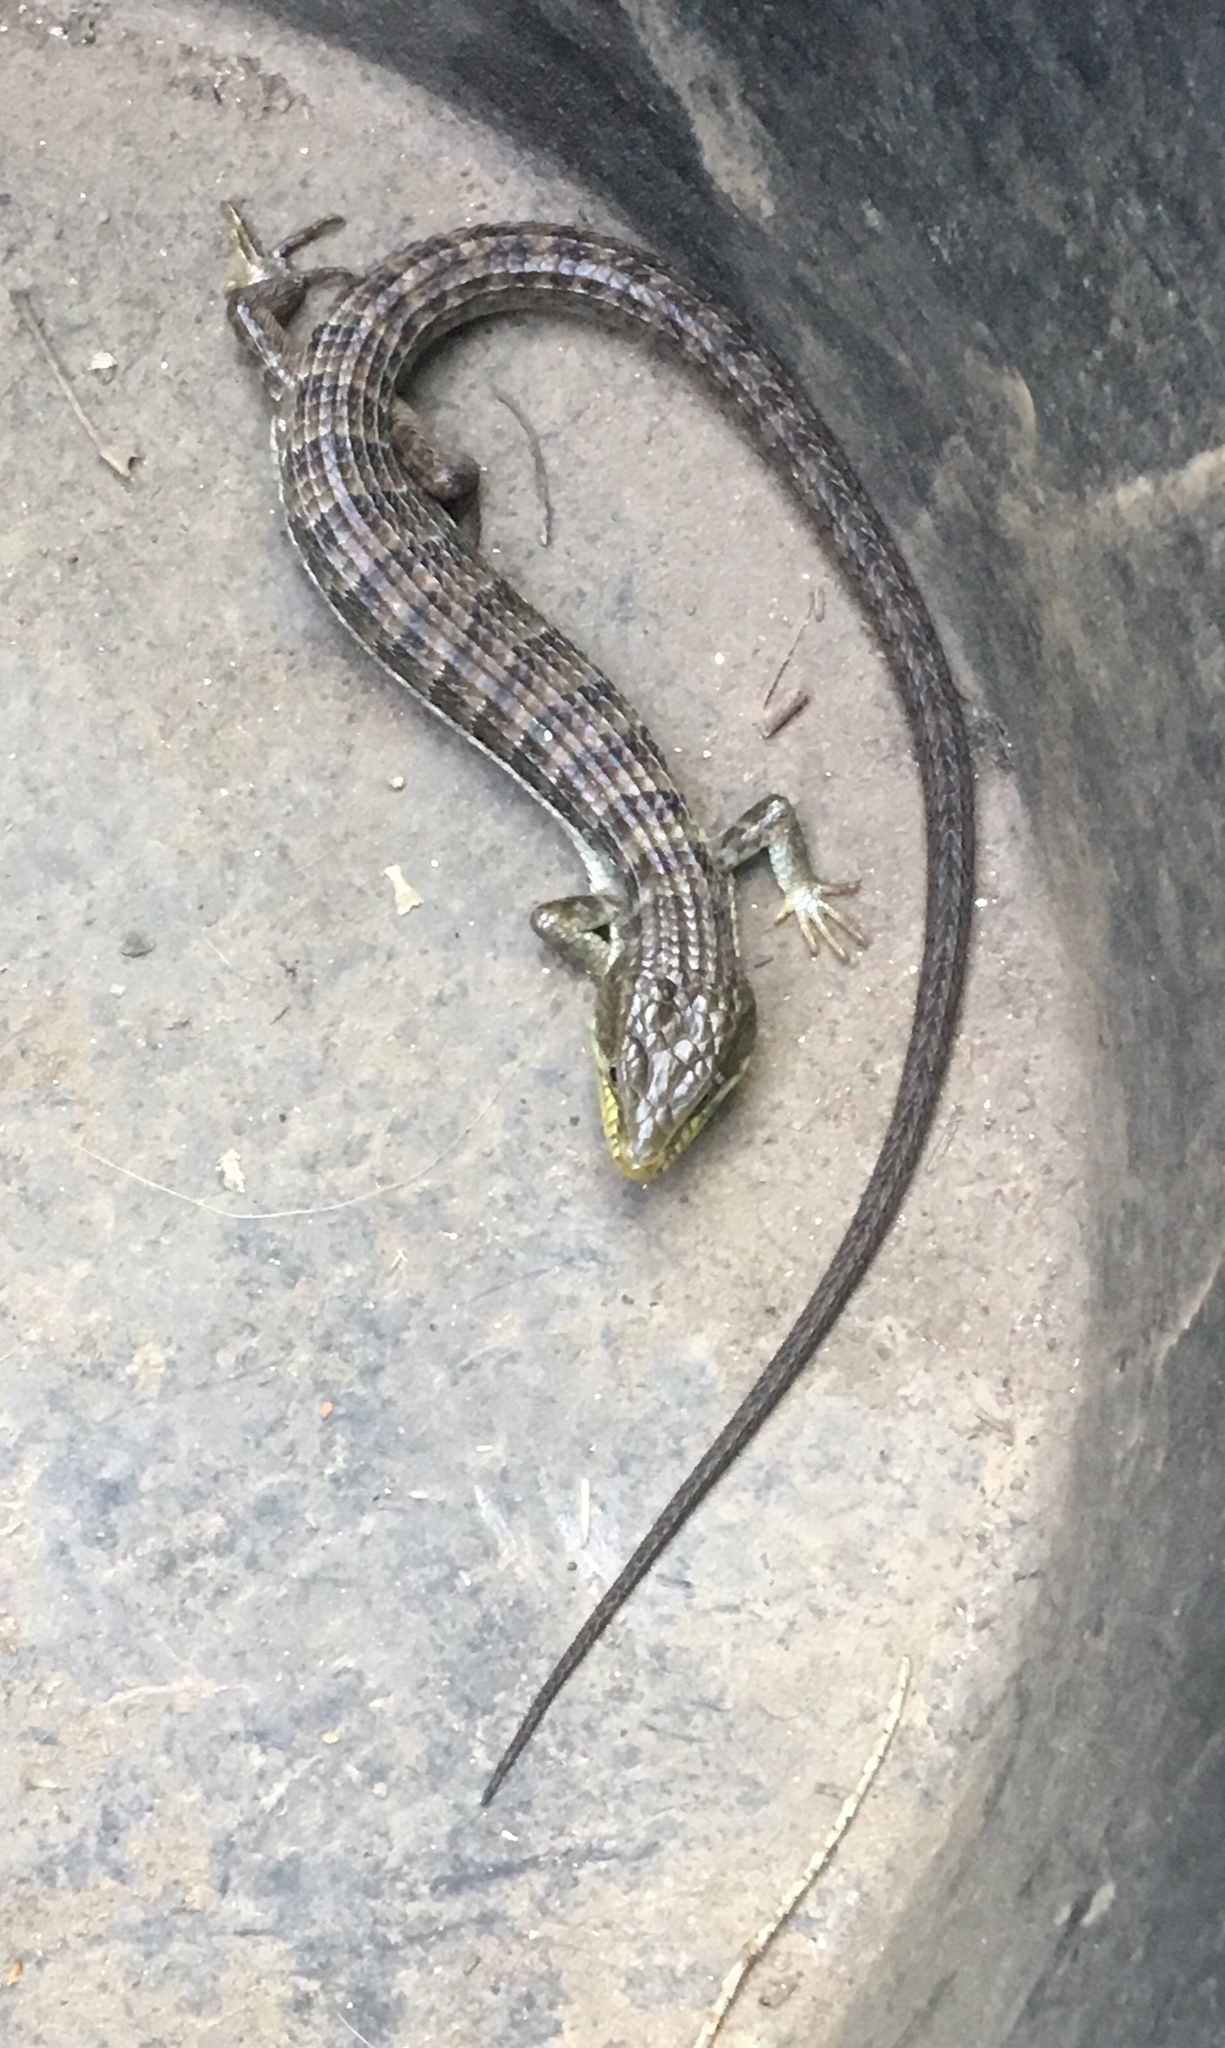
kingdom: Animalia
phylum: Chordata
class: Squamata
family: Anguidae
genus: Elgaria
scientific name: Elgaria multicarinata
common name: Southern alligator lizard
